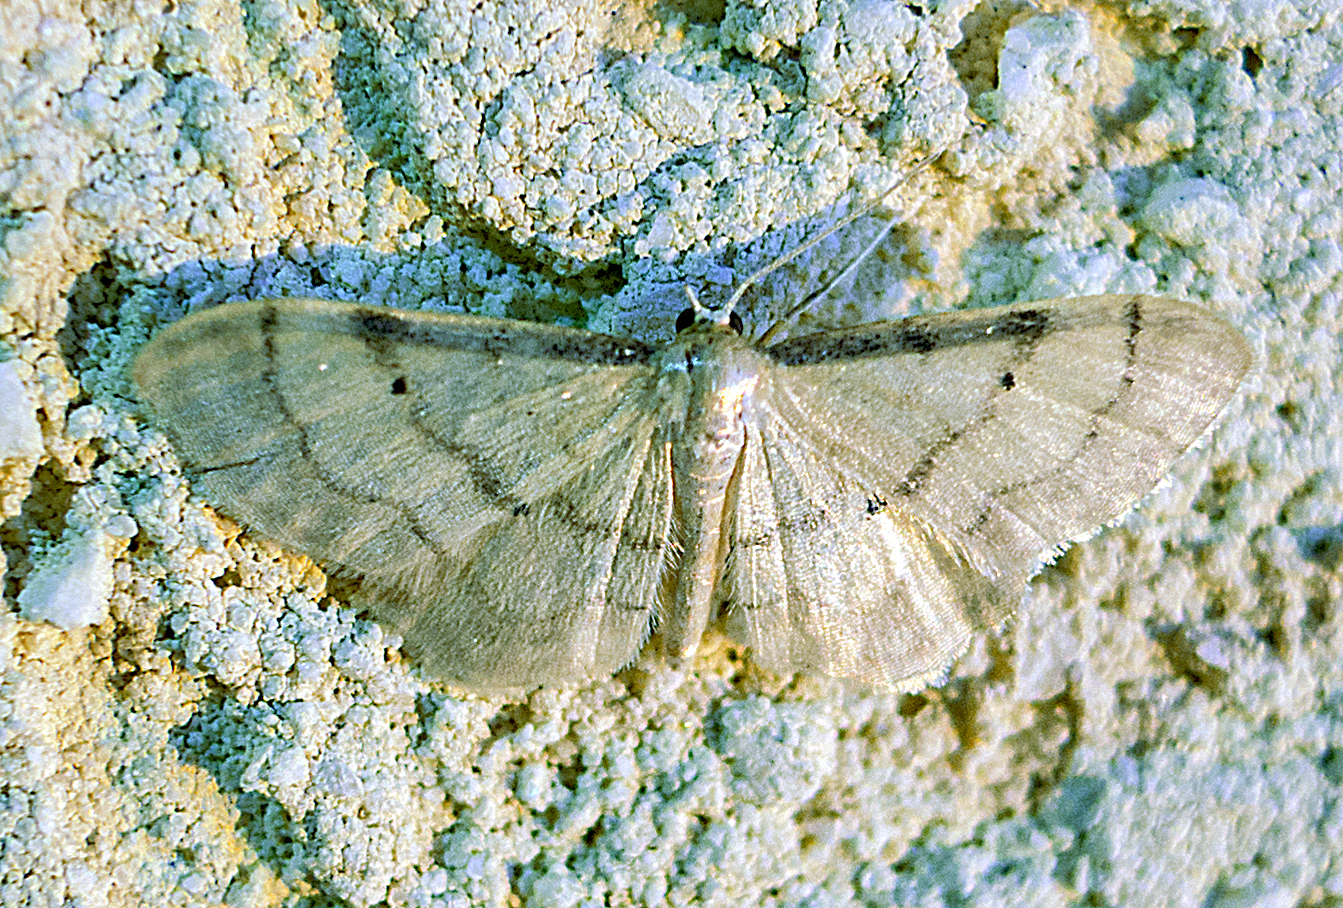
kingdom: Animalia
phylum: Arthropoda
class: Insecta
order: Lepidoptera
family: Geometridae
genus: Idaea
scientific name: Idaea politaria
